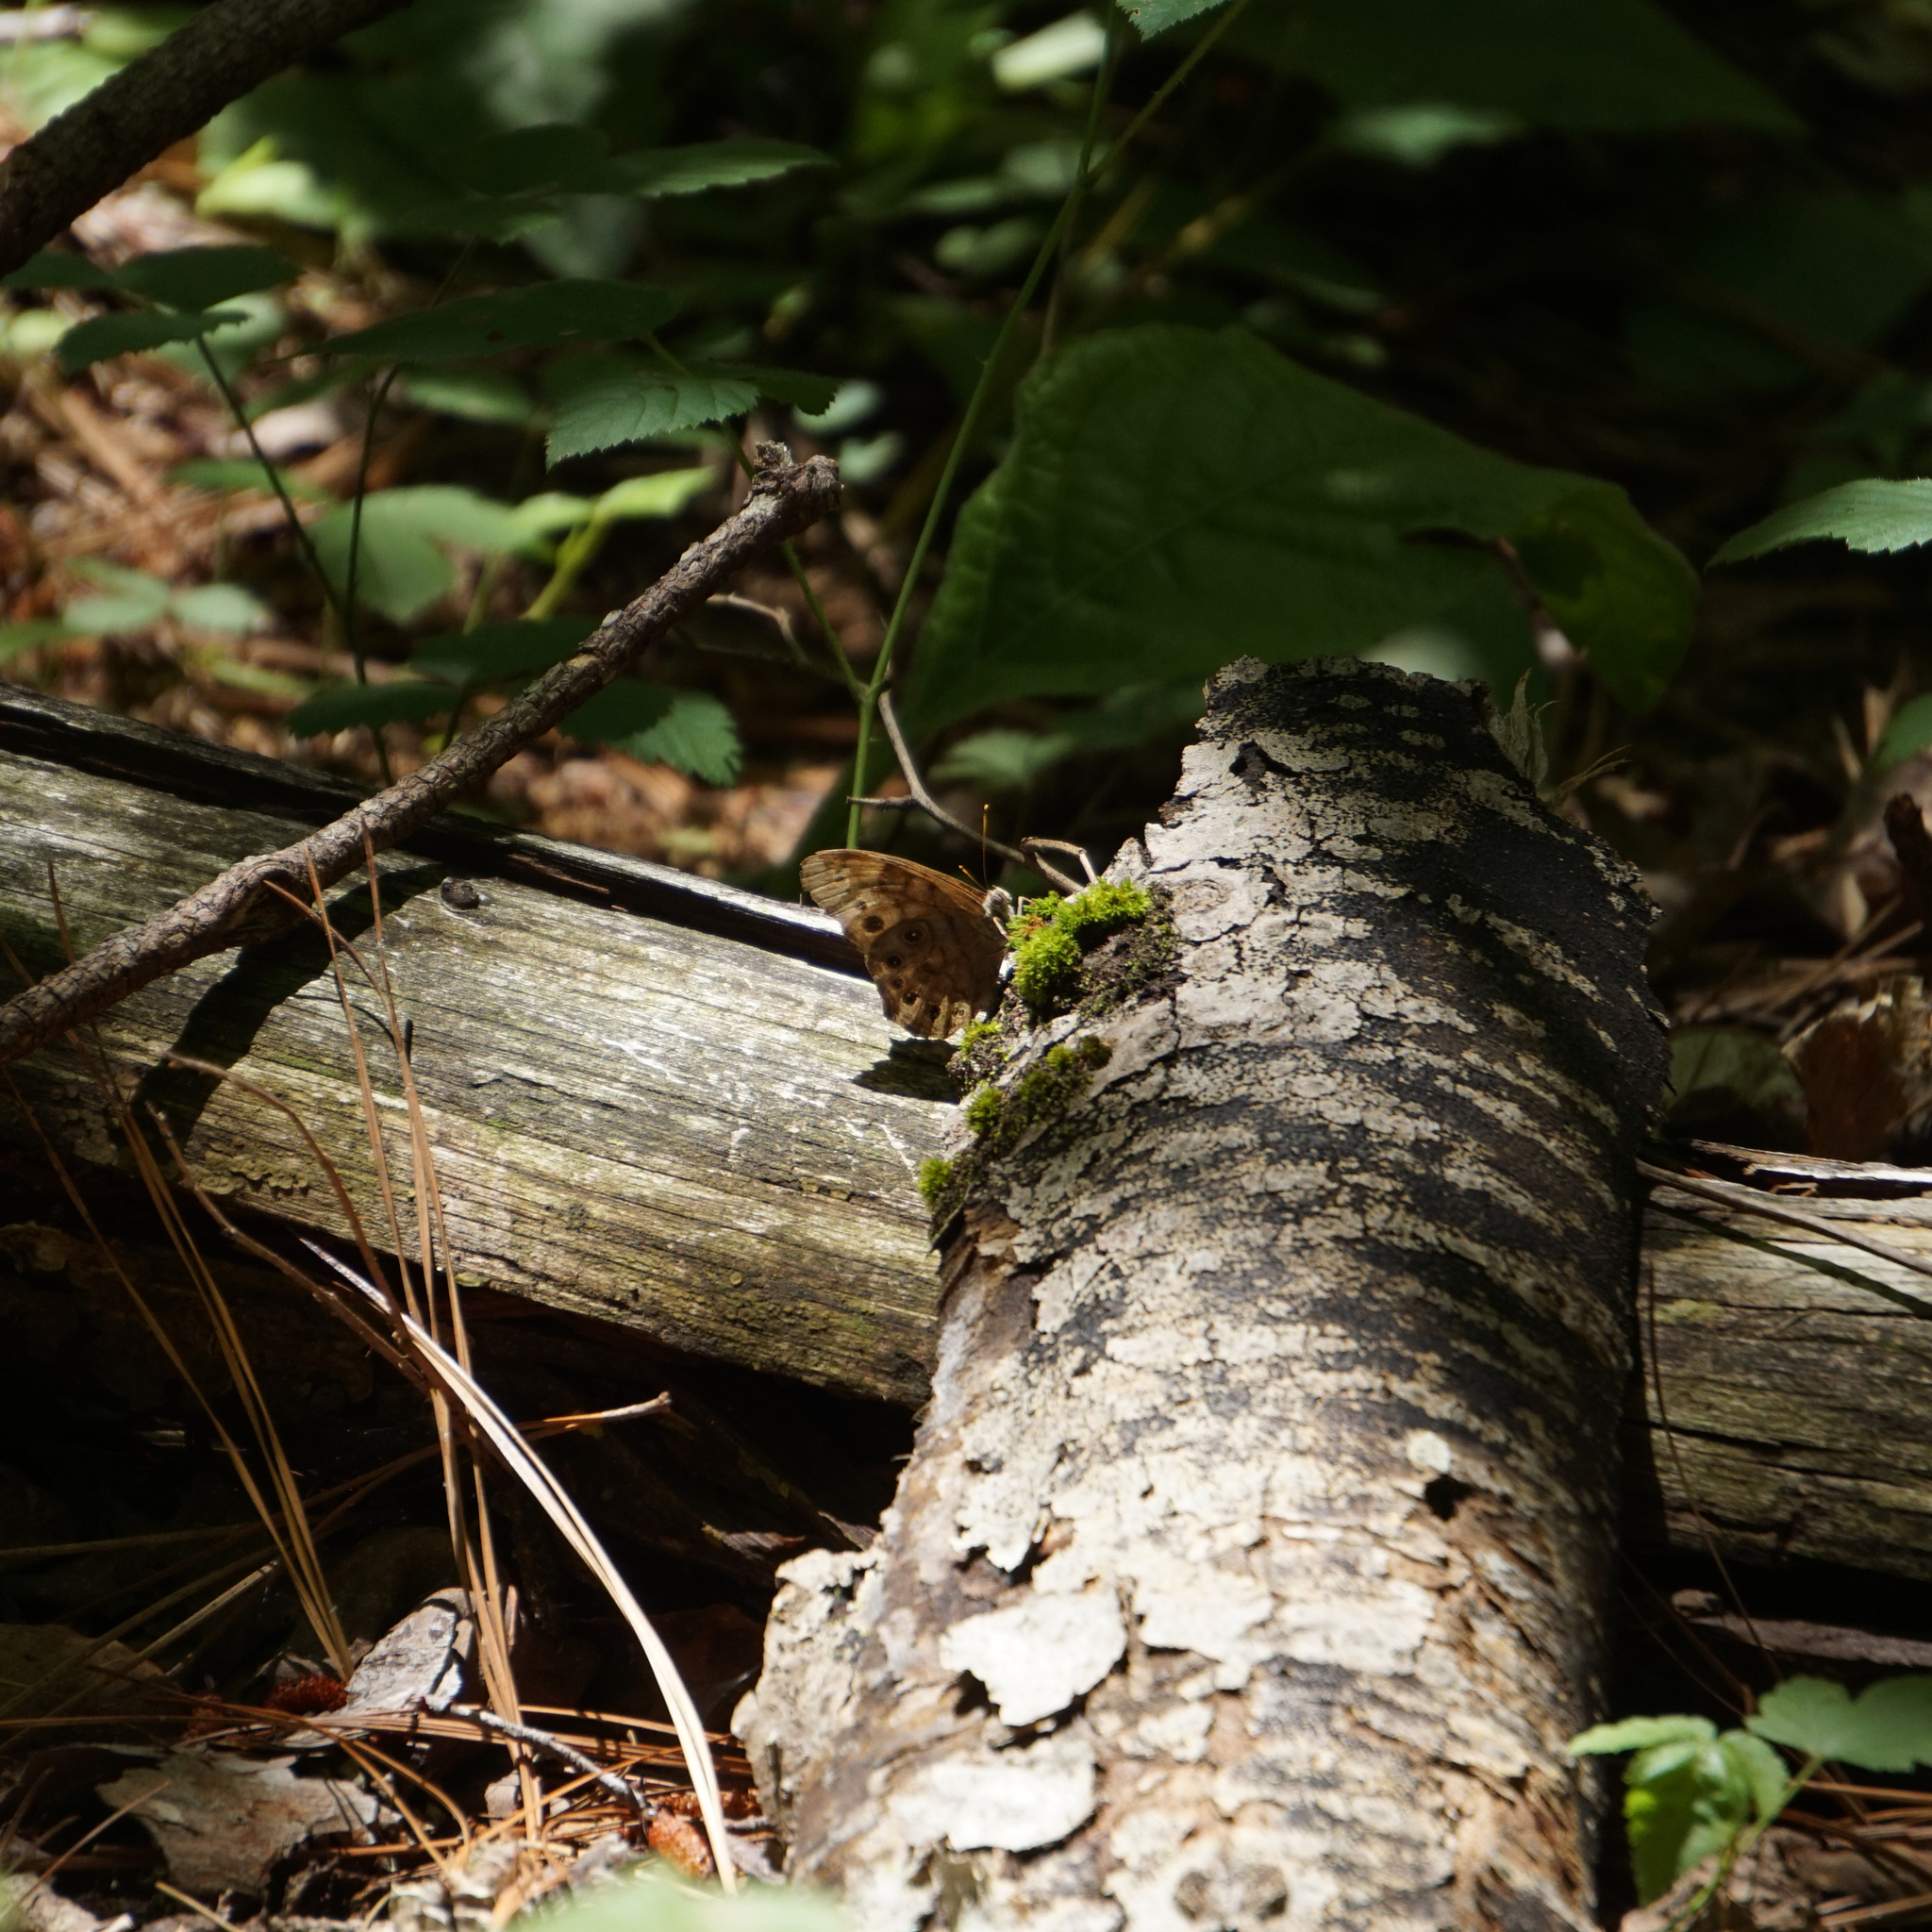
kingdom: Animalia
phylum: Arthropoda
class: Insecta
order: Lepidoptera
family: Nymphalidae
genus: Lethe
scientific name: Lethe anthedon
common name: Northern pearly-eye
